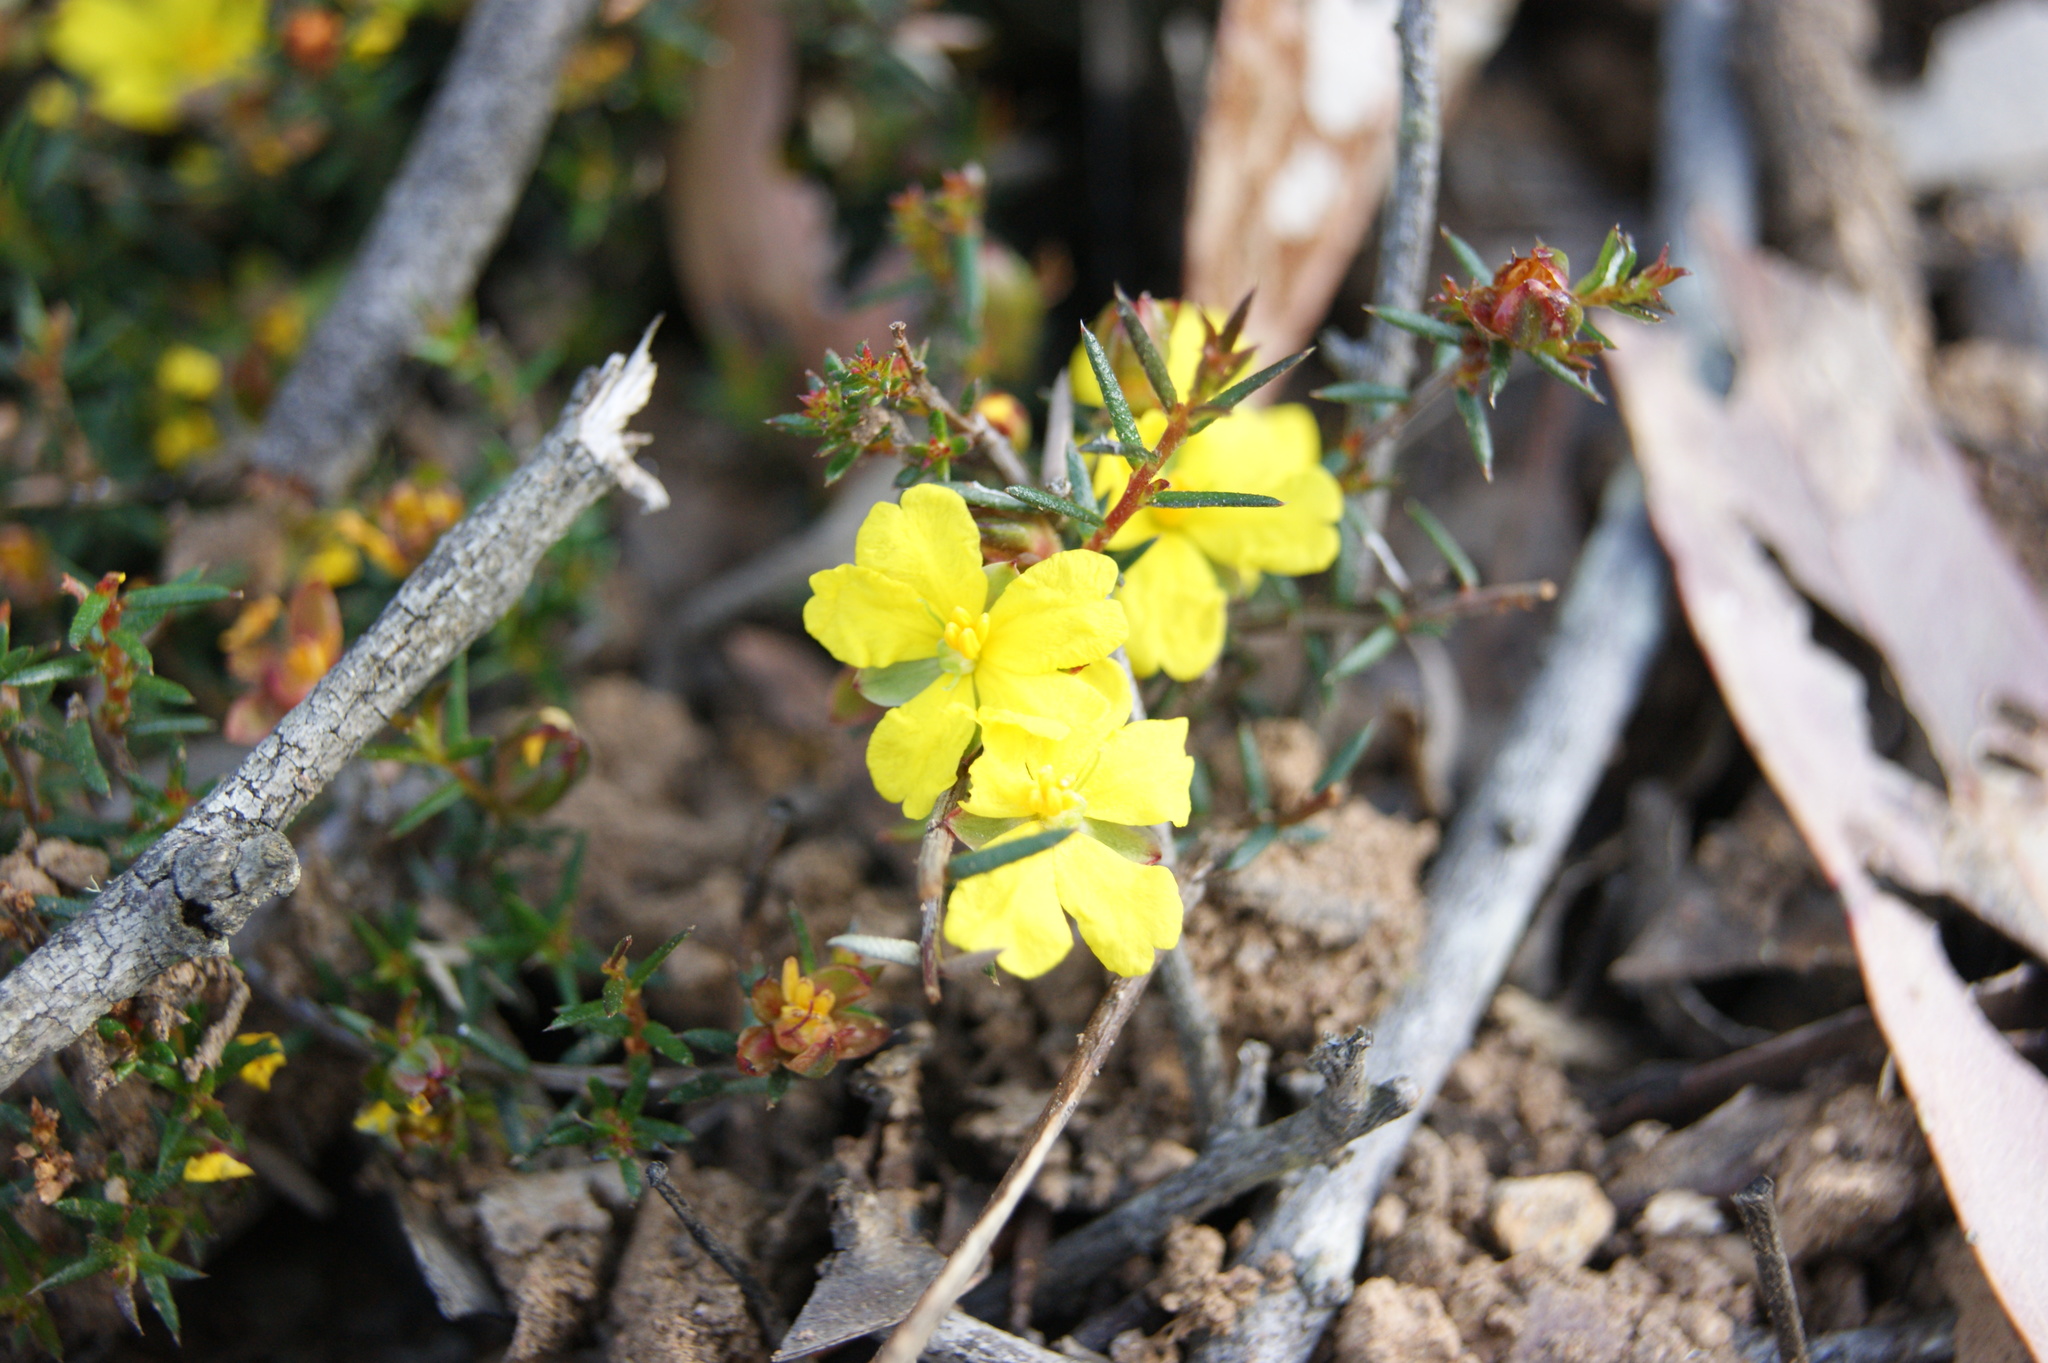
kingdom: Plantae
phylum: Tracheophyta
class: Magnoliopsida
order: Dilleniales
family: Dilleniaceae
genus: Hibbertia
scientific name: Hibbertia exutiacies
